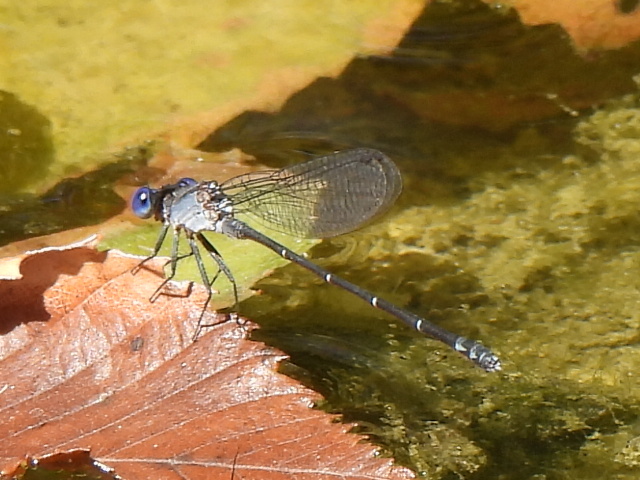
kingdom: Animalia
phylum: Arthropoda
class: Insecta
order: Odonata
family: Coenagrionidae
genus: Argia
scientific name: Argia translata
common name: Dusky dancer
